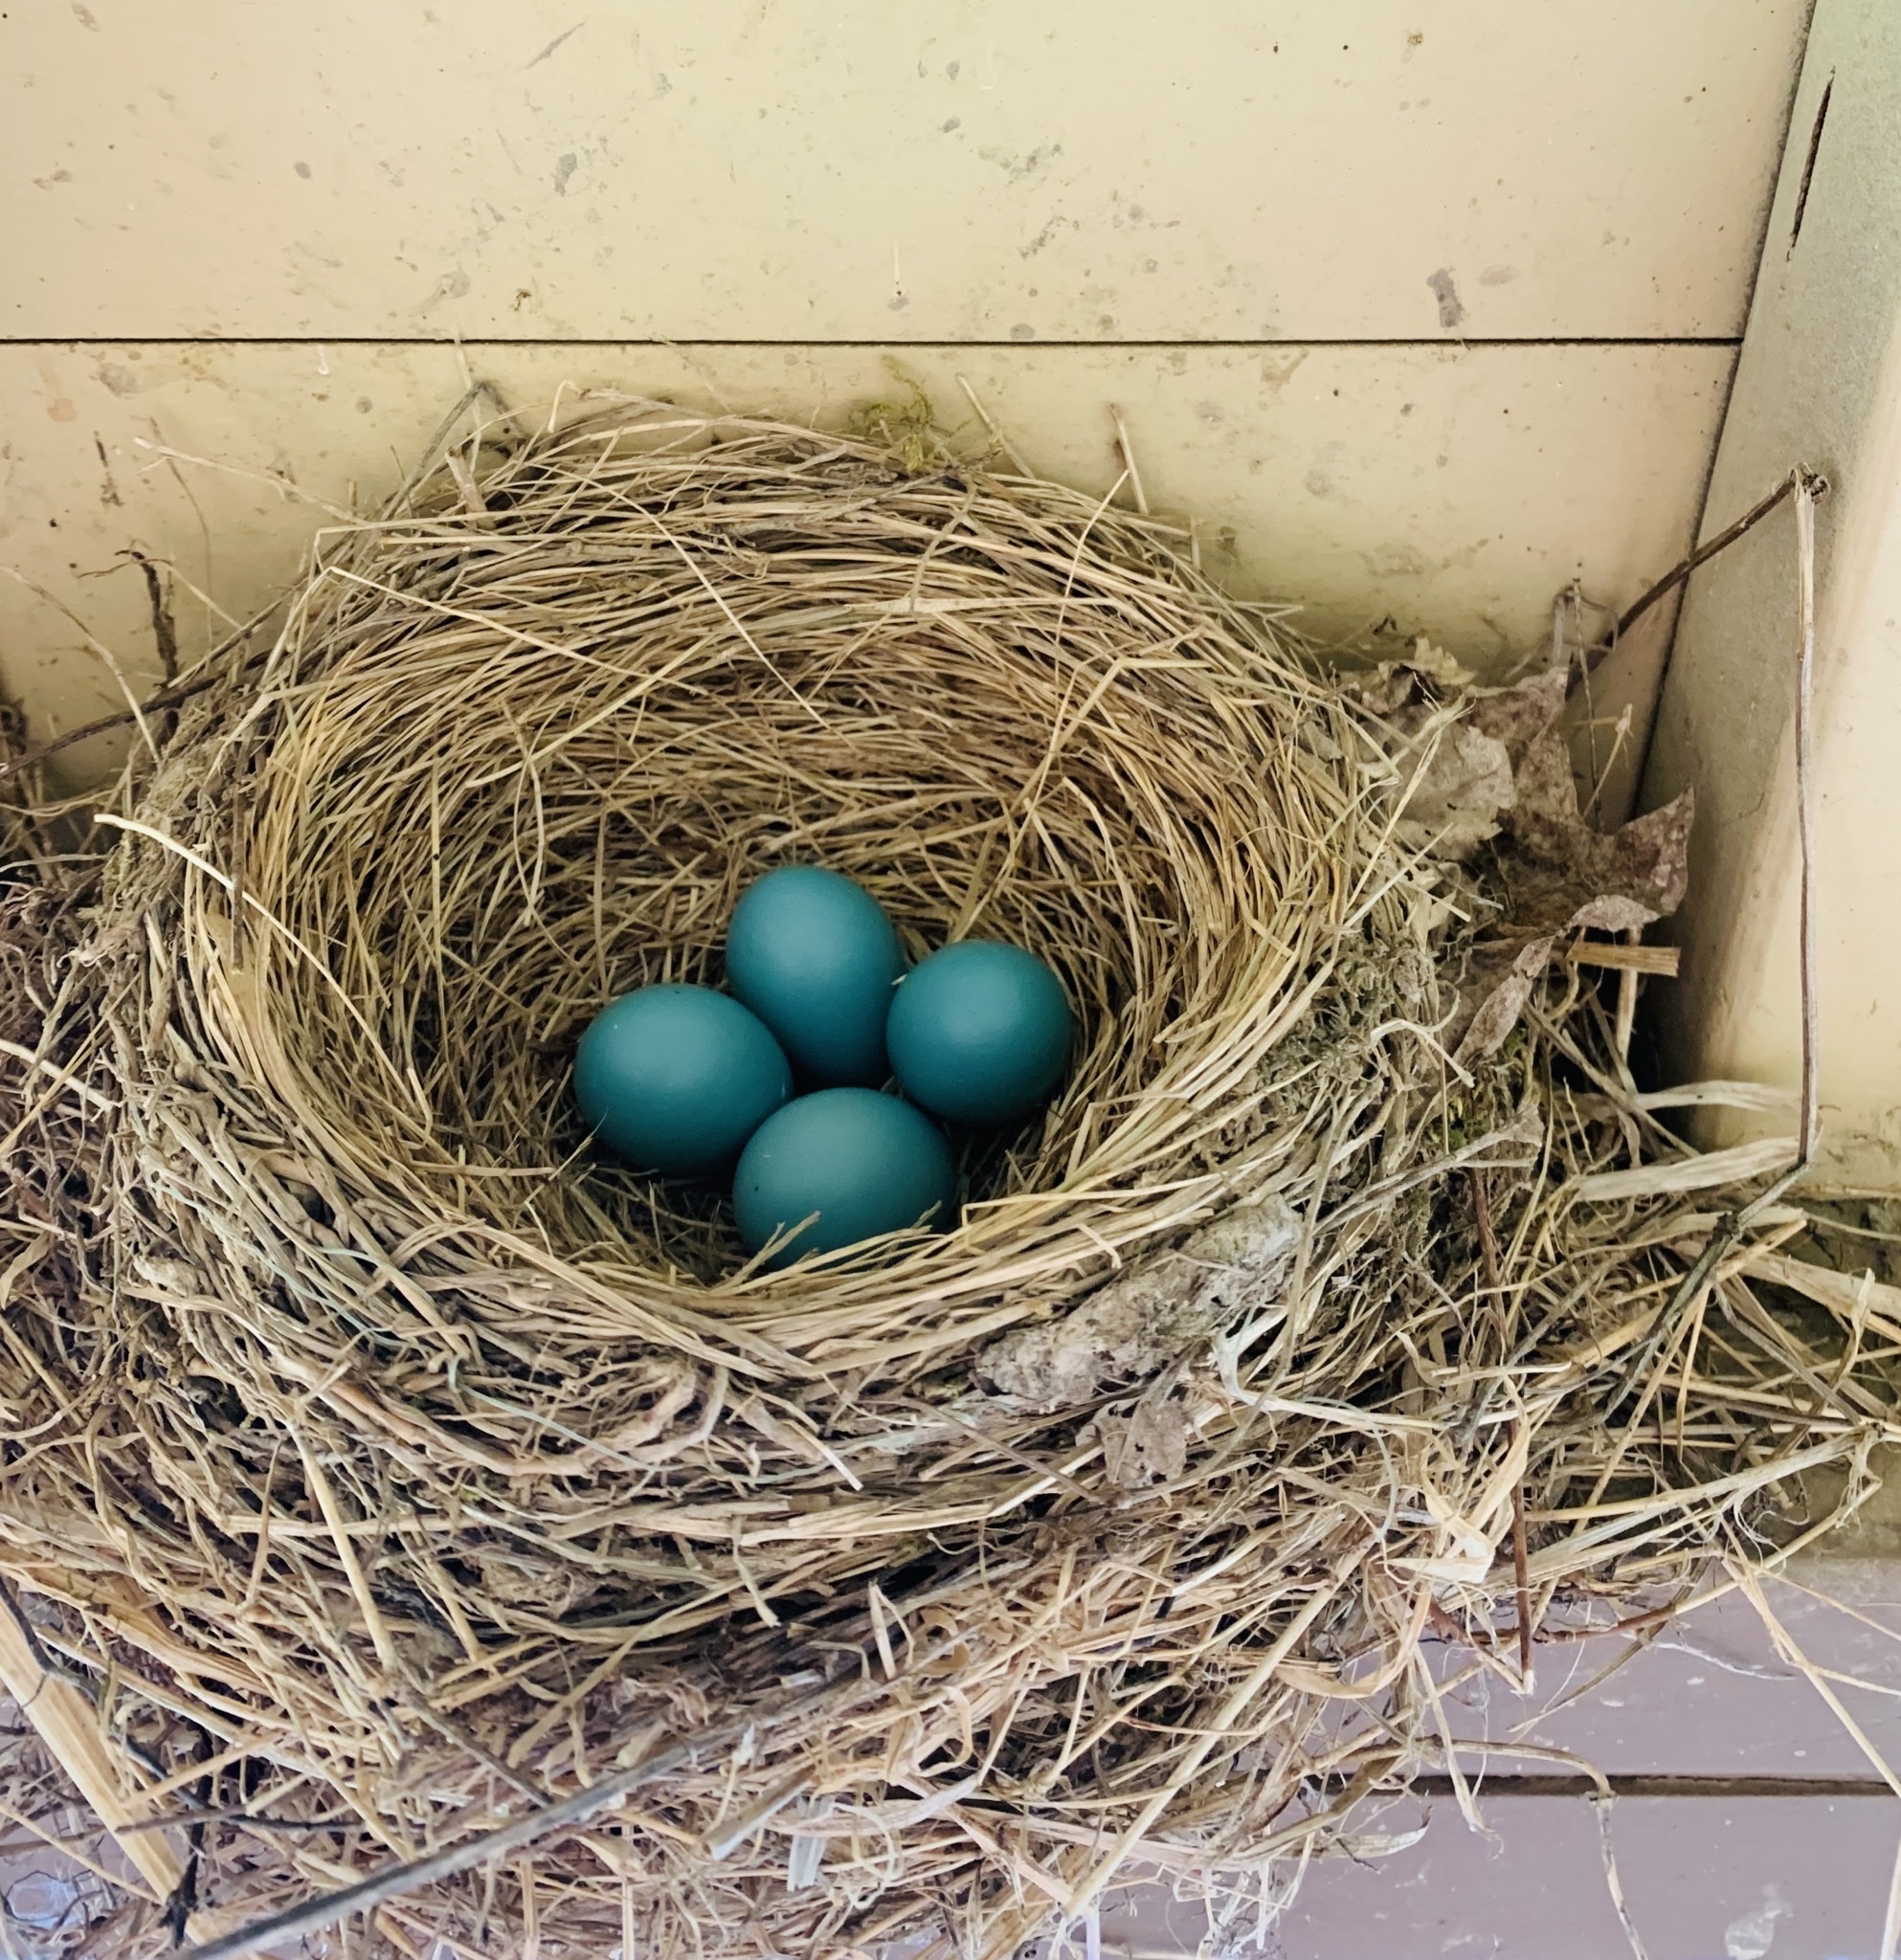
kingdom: Animalia
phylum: Chordata
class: Aves
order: Passeriformes
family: Turdidae
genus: Turdus
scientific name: Turdus migratorius
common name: American robin
